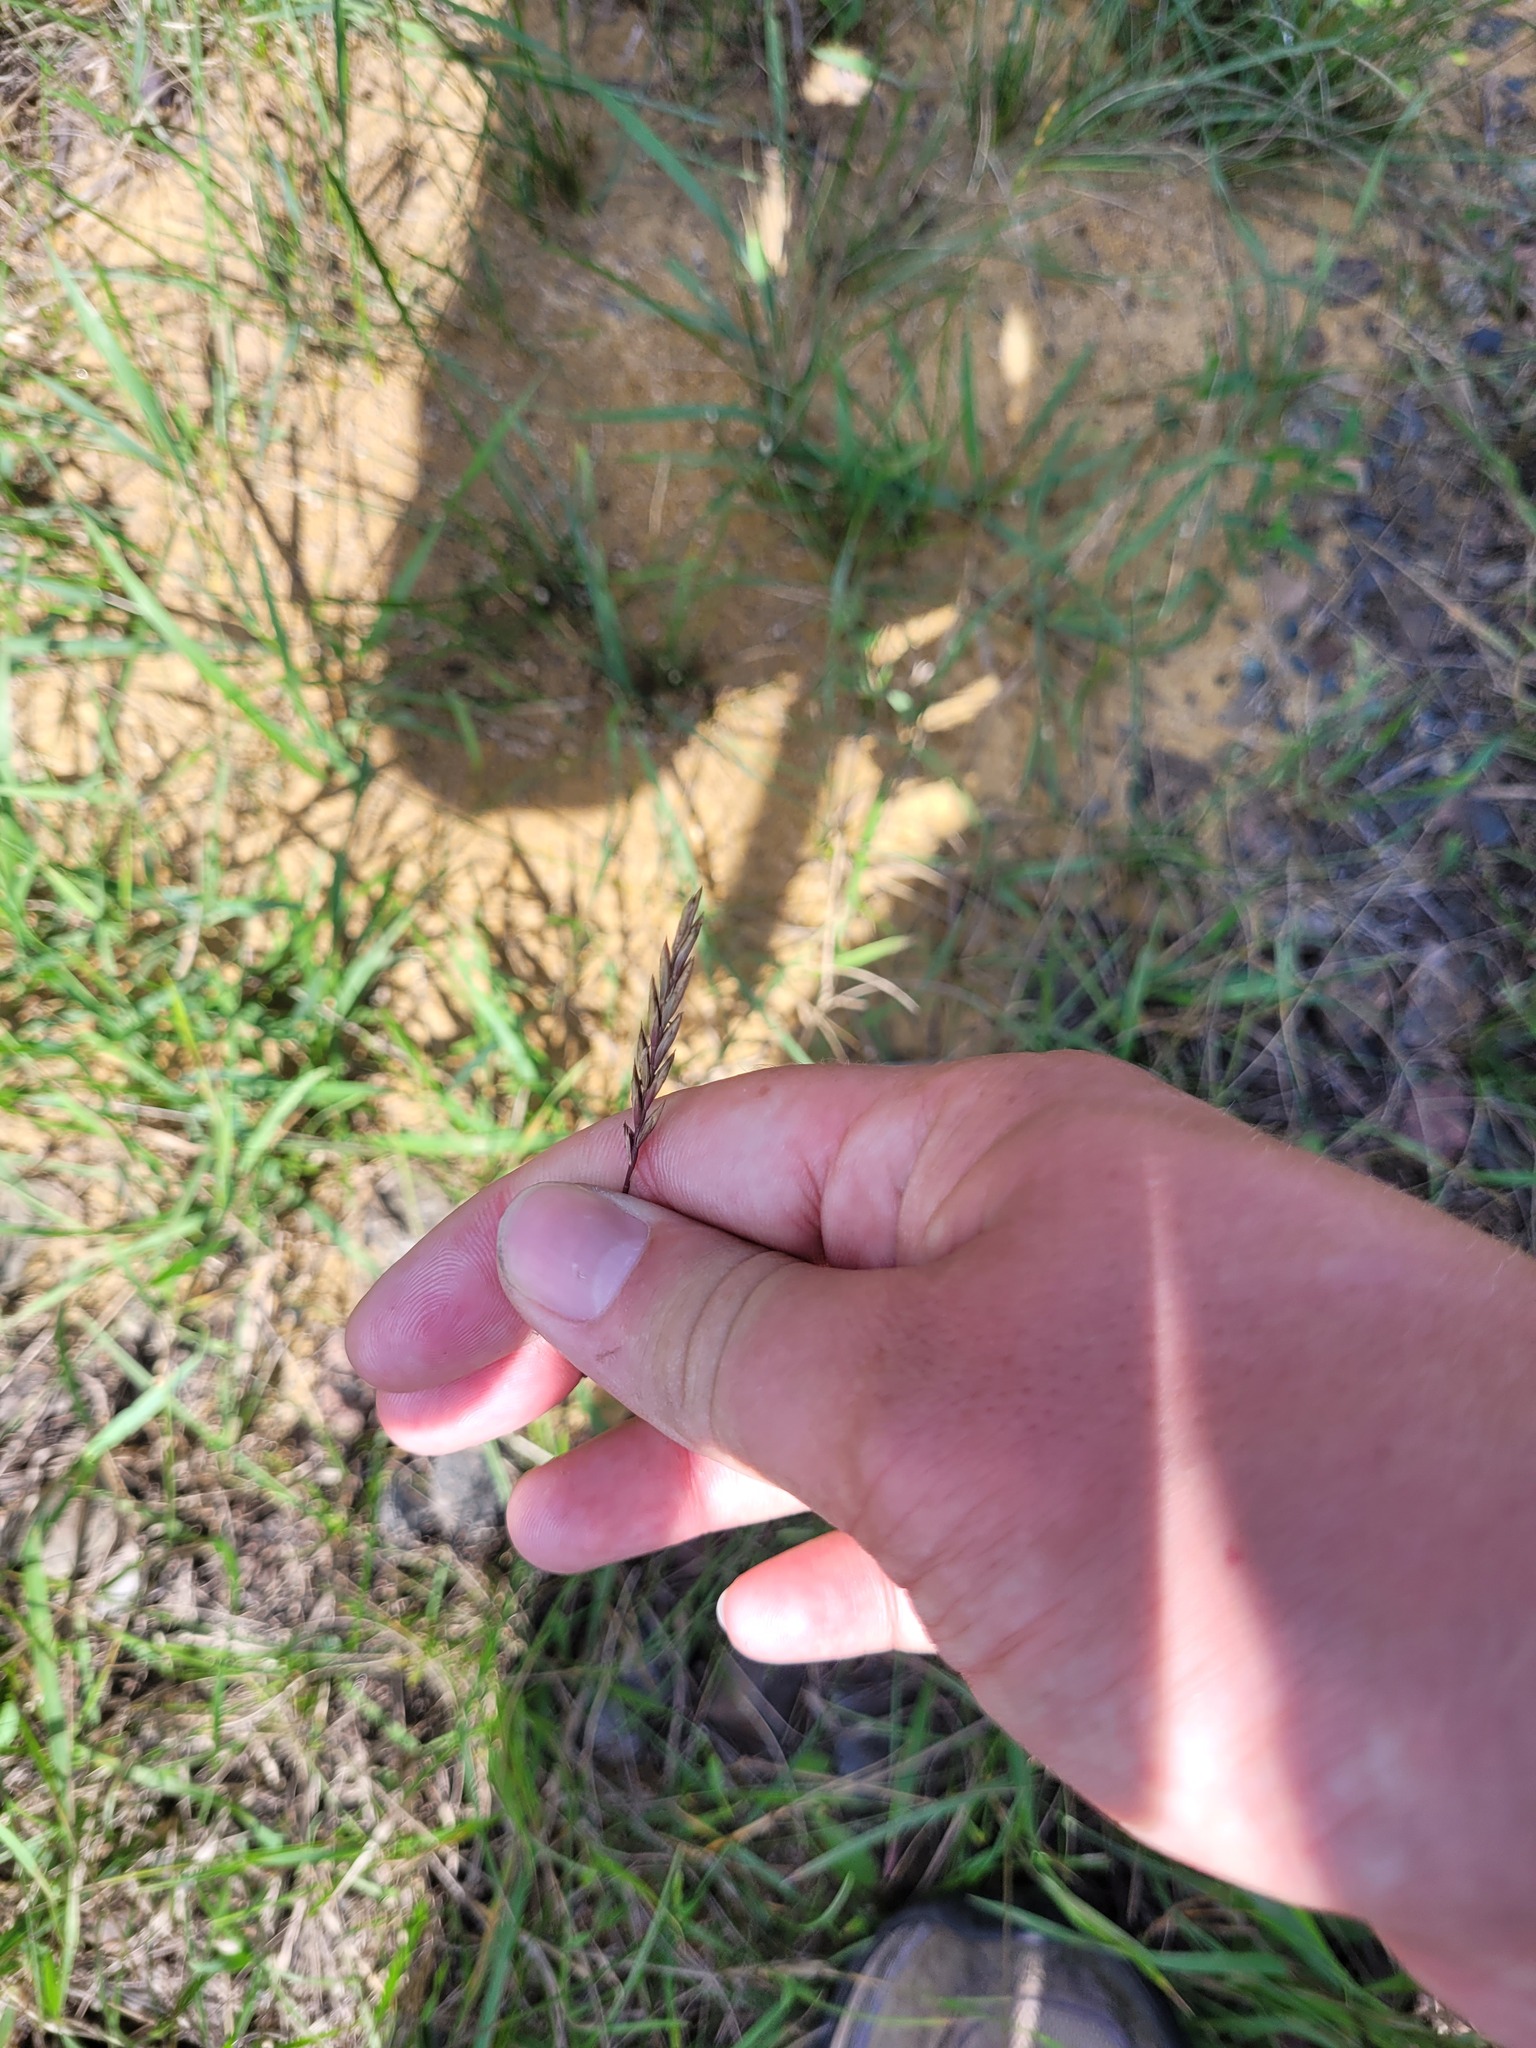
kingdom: Plantae
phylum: Tracheophyta
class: Liliopsida
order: Poales
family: Poaceae
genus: Elymus
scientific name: Elymus repens
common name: Quackgrass
